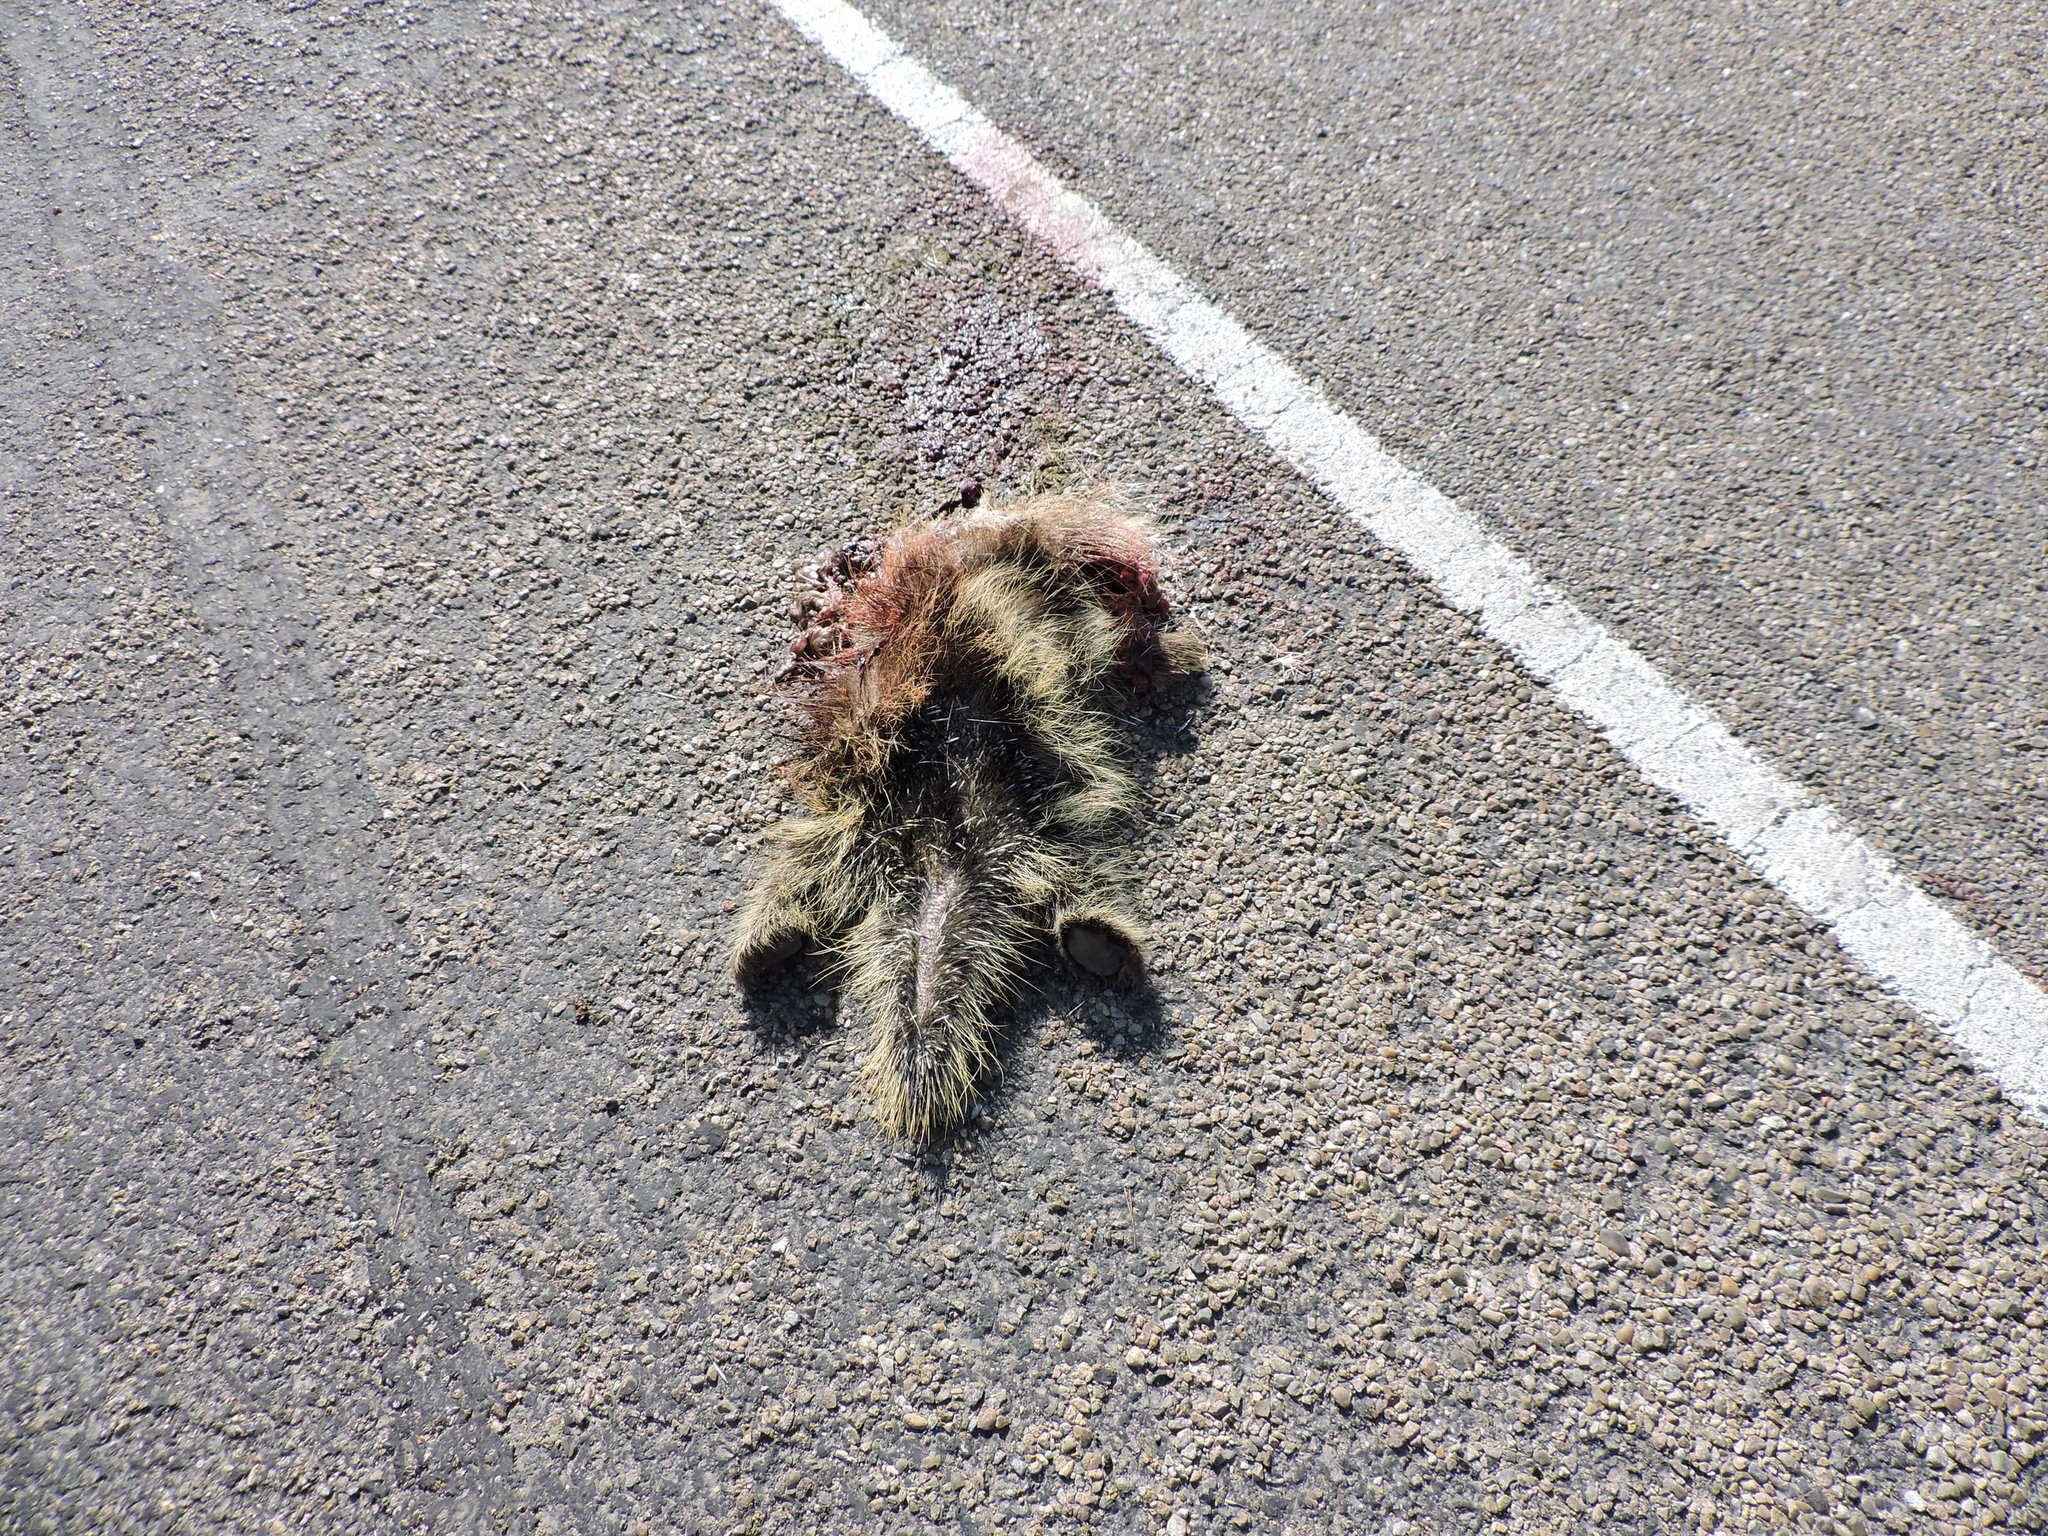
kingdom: Animalia
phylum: Chordata
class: Mammalia
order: Rodentia
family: Erethizontidae
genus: Erethizon
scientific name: Erethizon dorsatus
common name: North american porcupine
